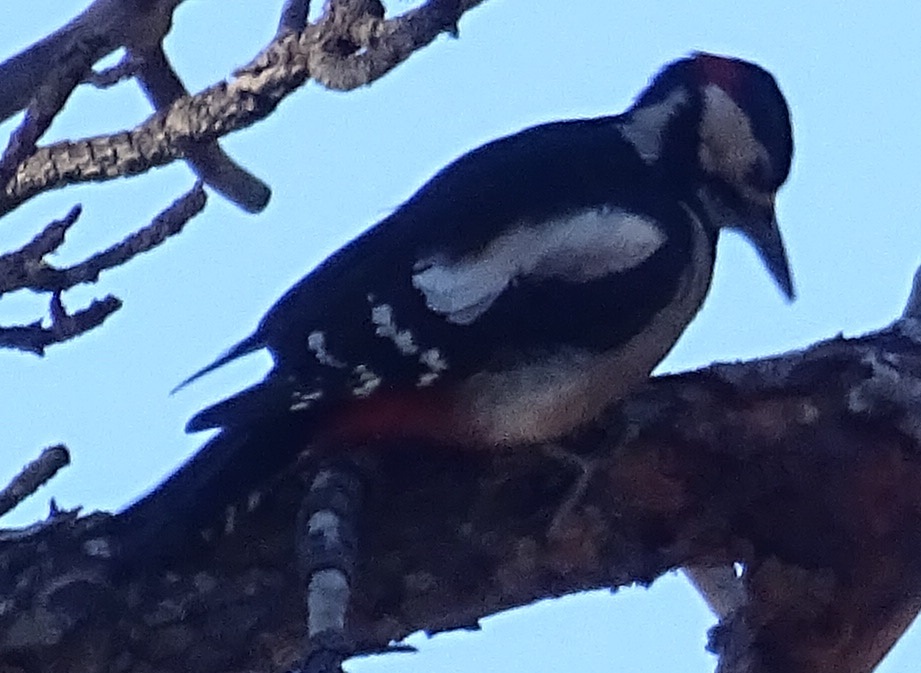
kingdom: Animalia
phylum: Chordata
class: Aves
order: Piciformes
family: Picidae
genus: Dendrocopos
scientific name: Dendrocopos major
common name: Great spotted woodpecker
